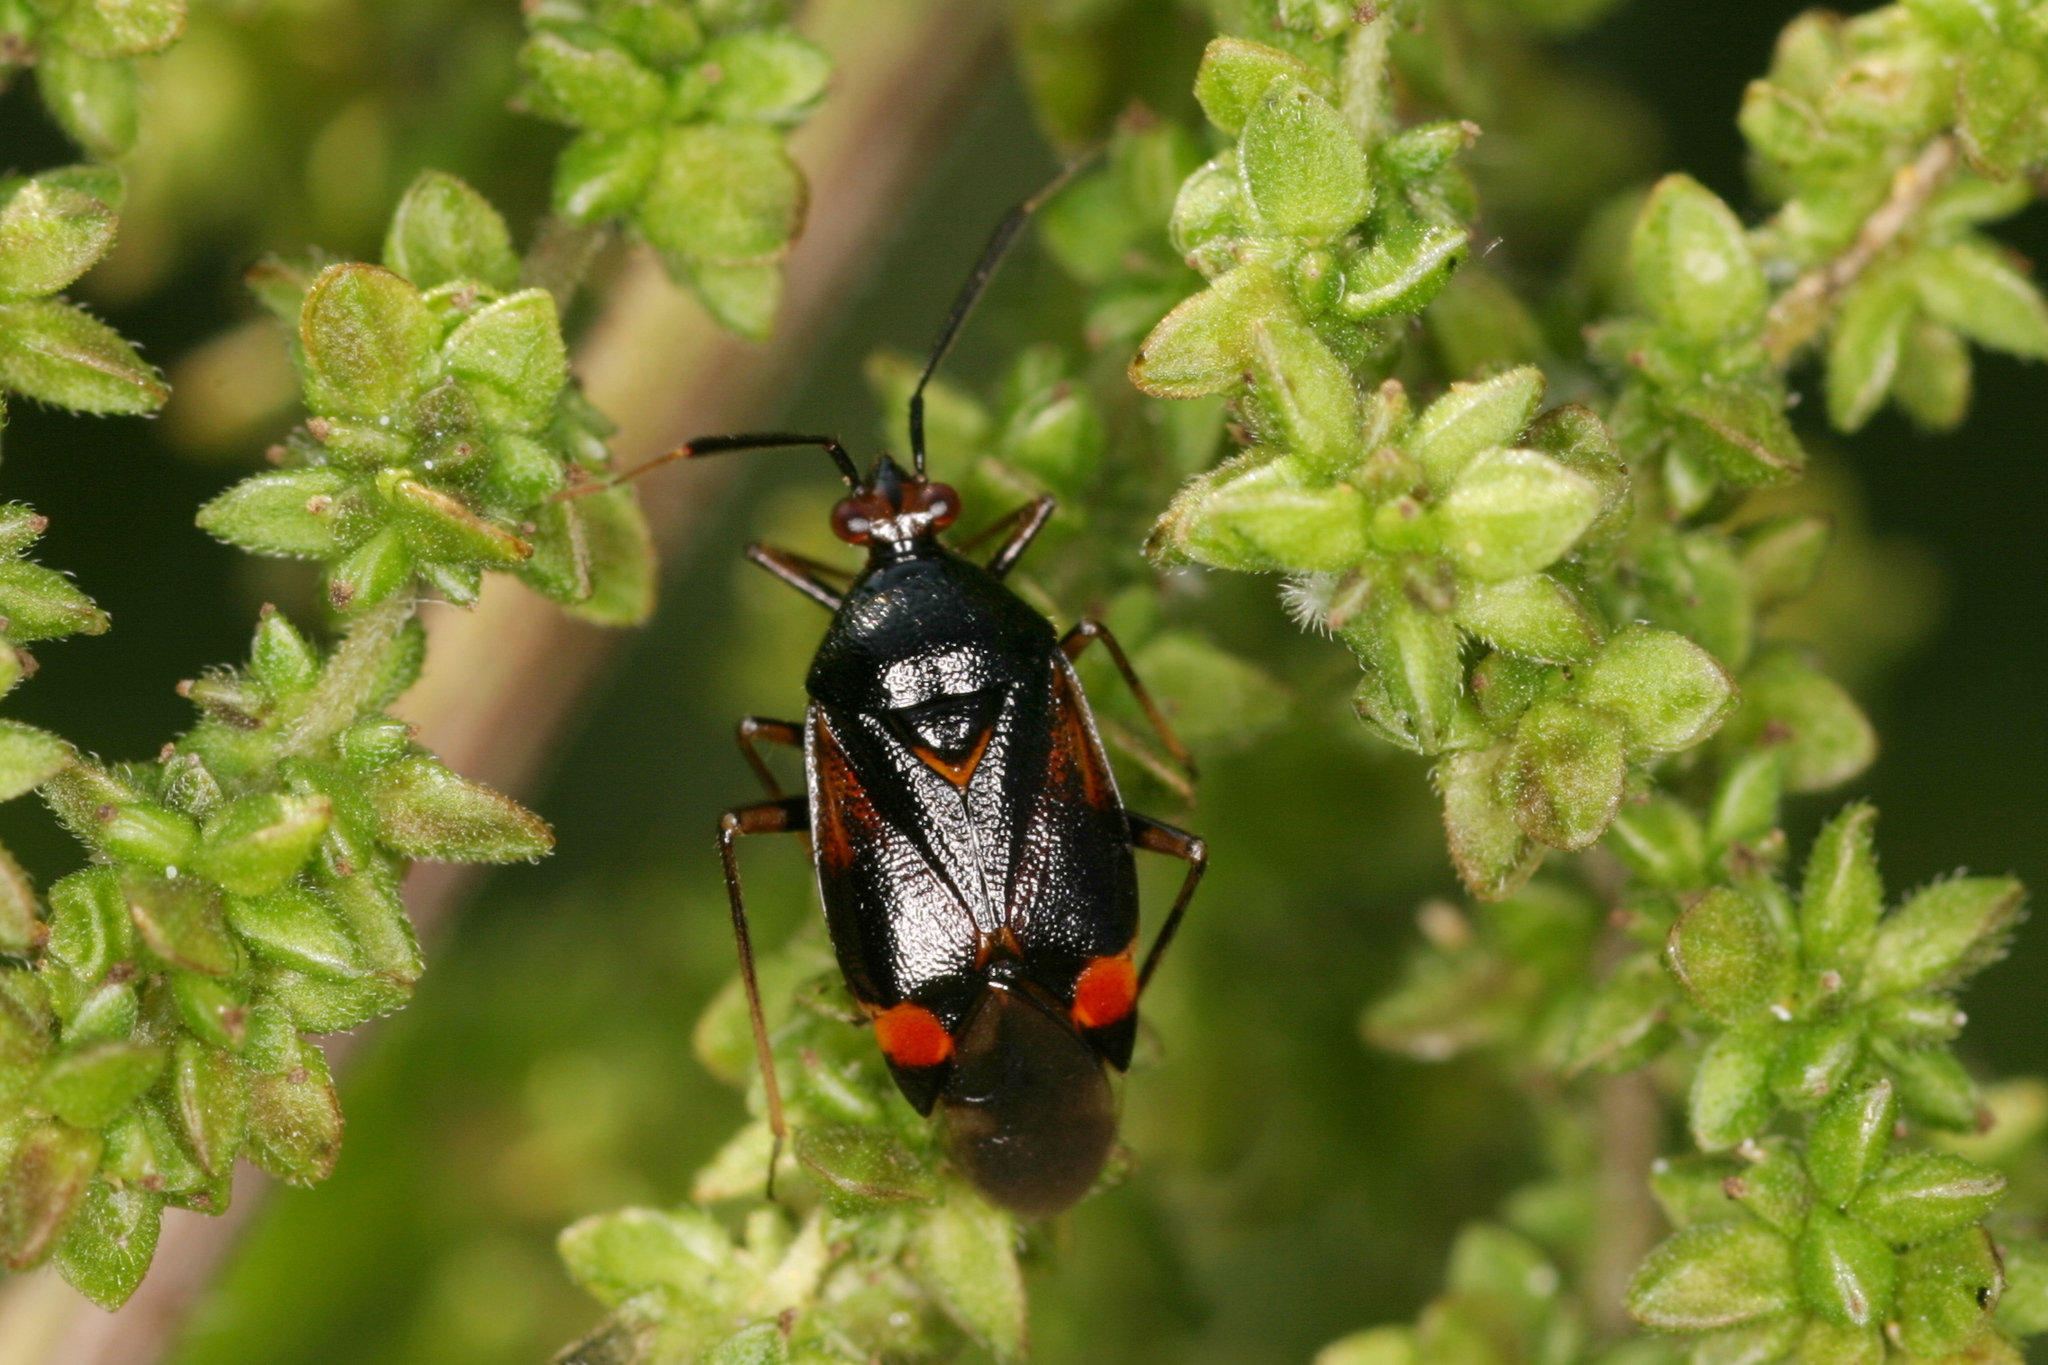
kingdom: Animalia
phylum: Arthropoda
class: Insecta
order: Hemiptera
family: Miridae
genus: Deraeocoris
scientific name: Deraeocoris ruber
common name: Plant bug
